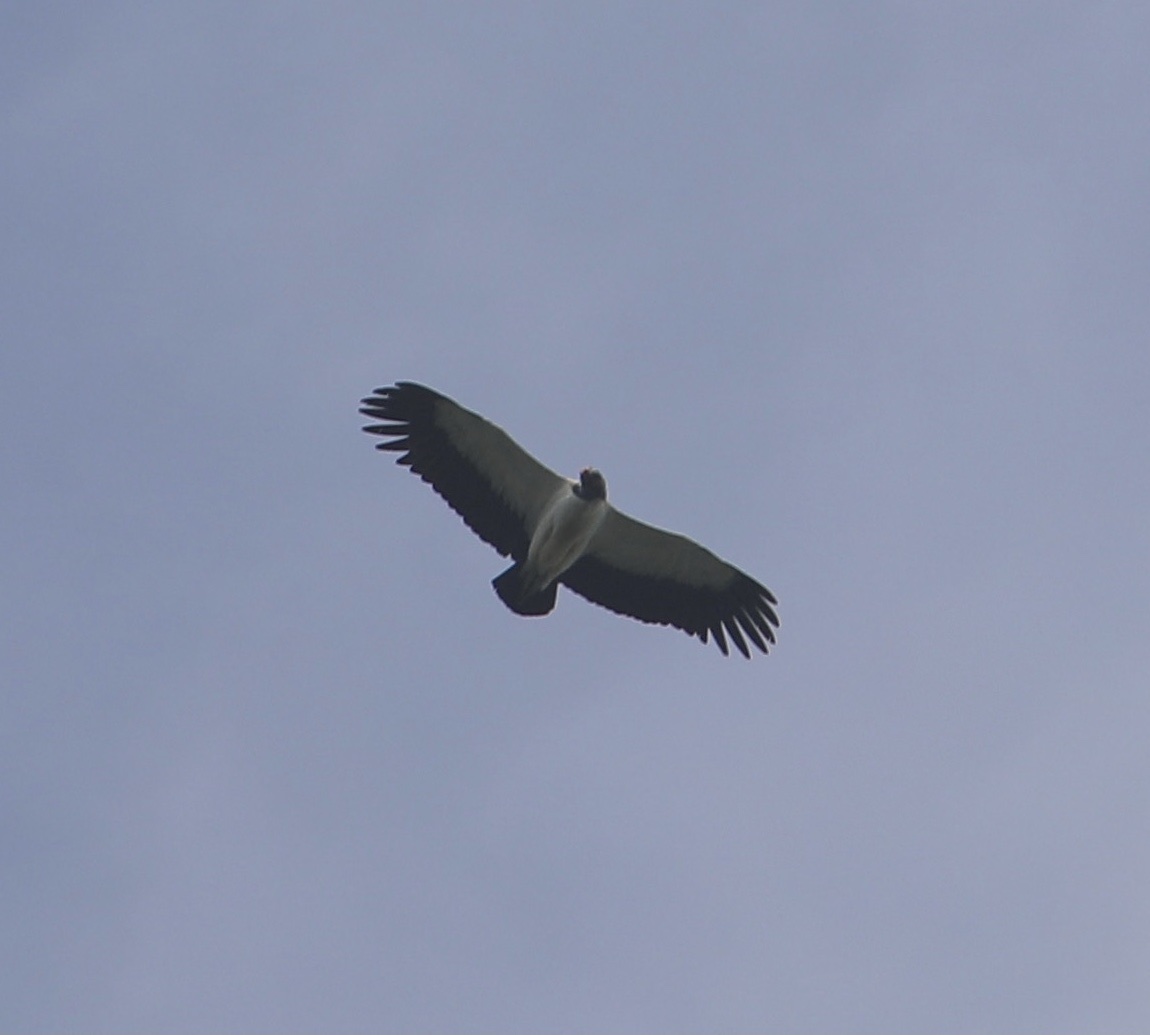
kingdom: Animalia
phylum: Chordata
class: Aves
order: Accipitriformes
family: Cathartidae
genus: Sarcoramphus
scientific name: Sarcoramphus papa
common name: King vulture
